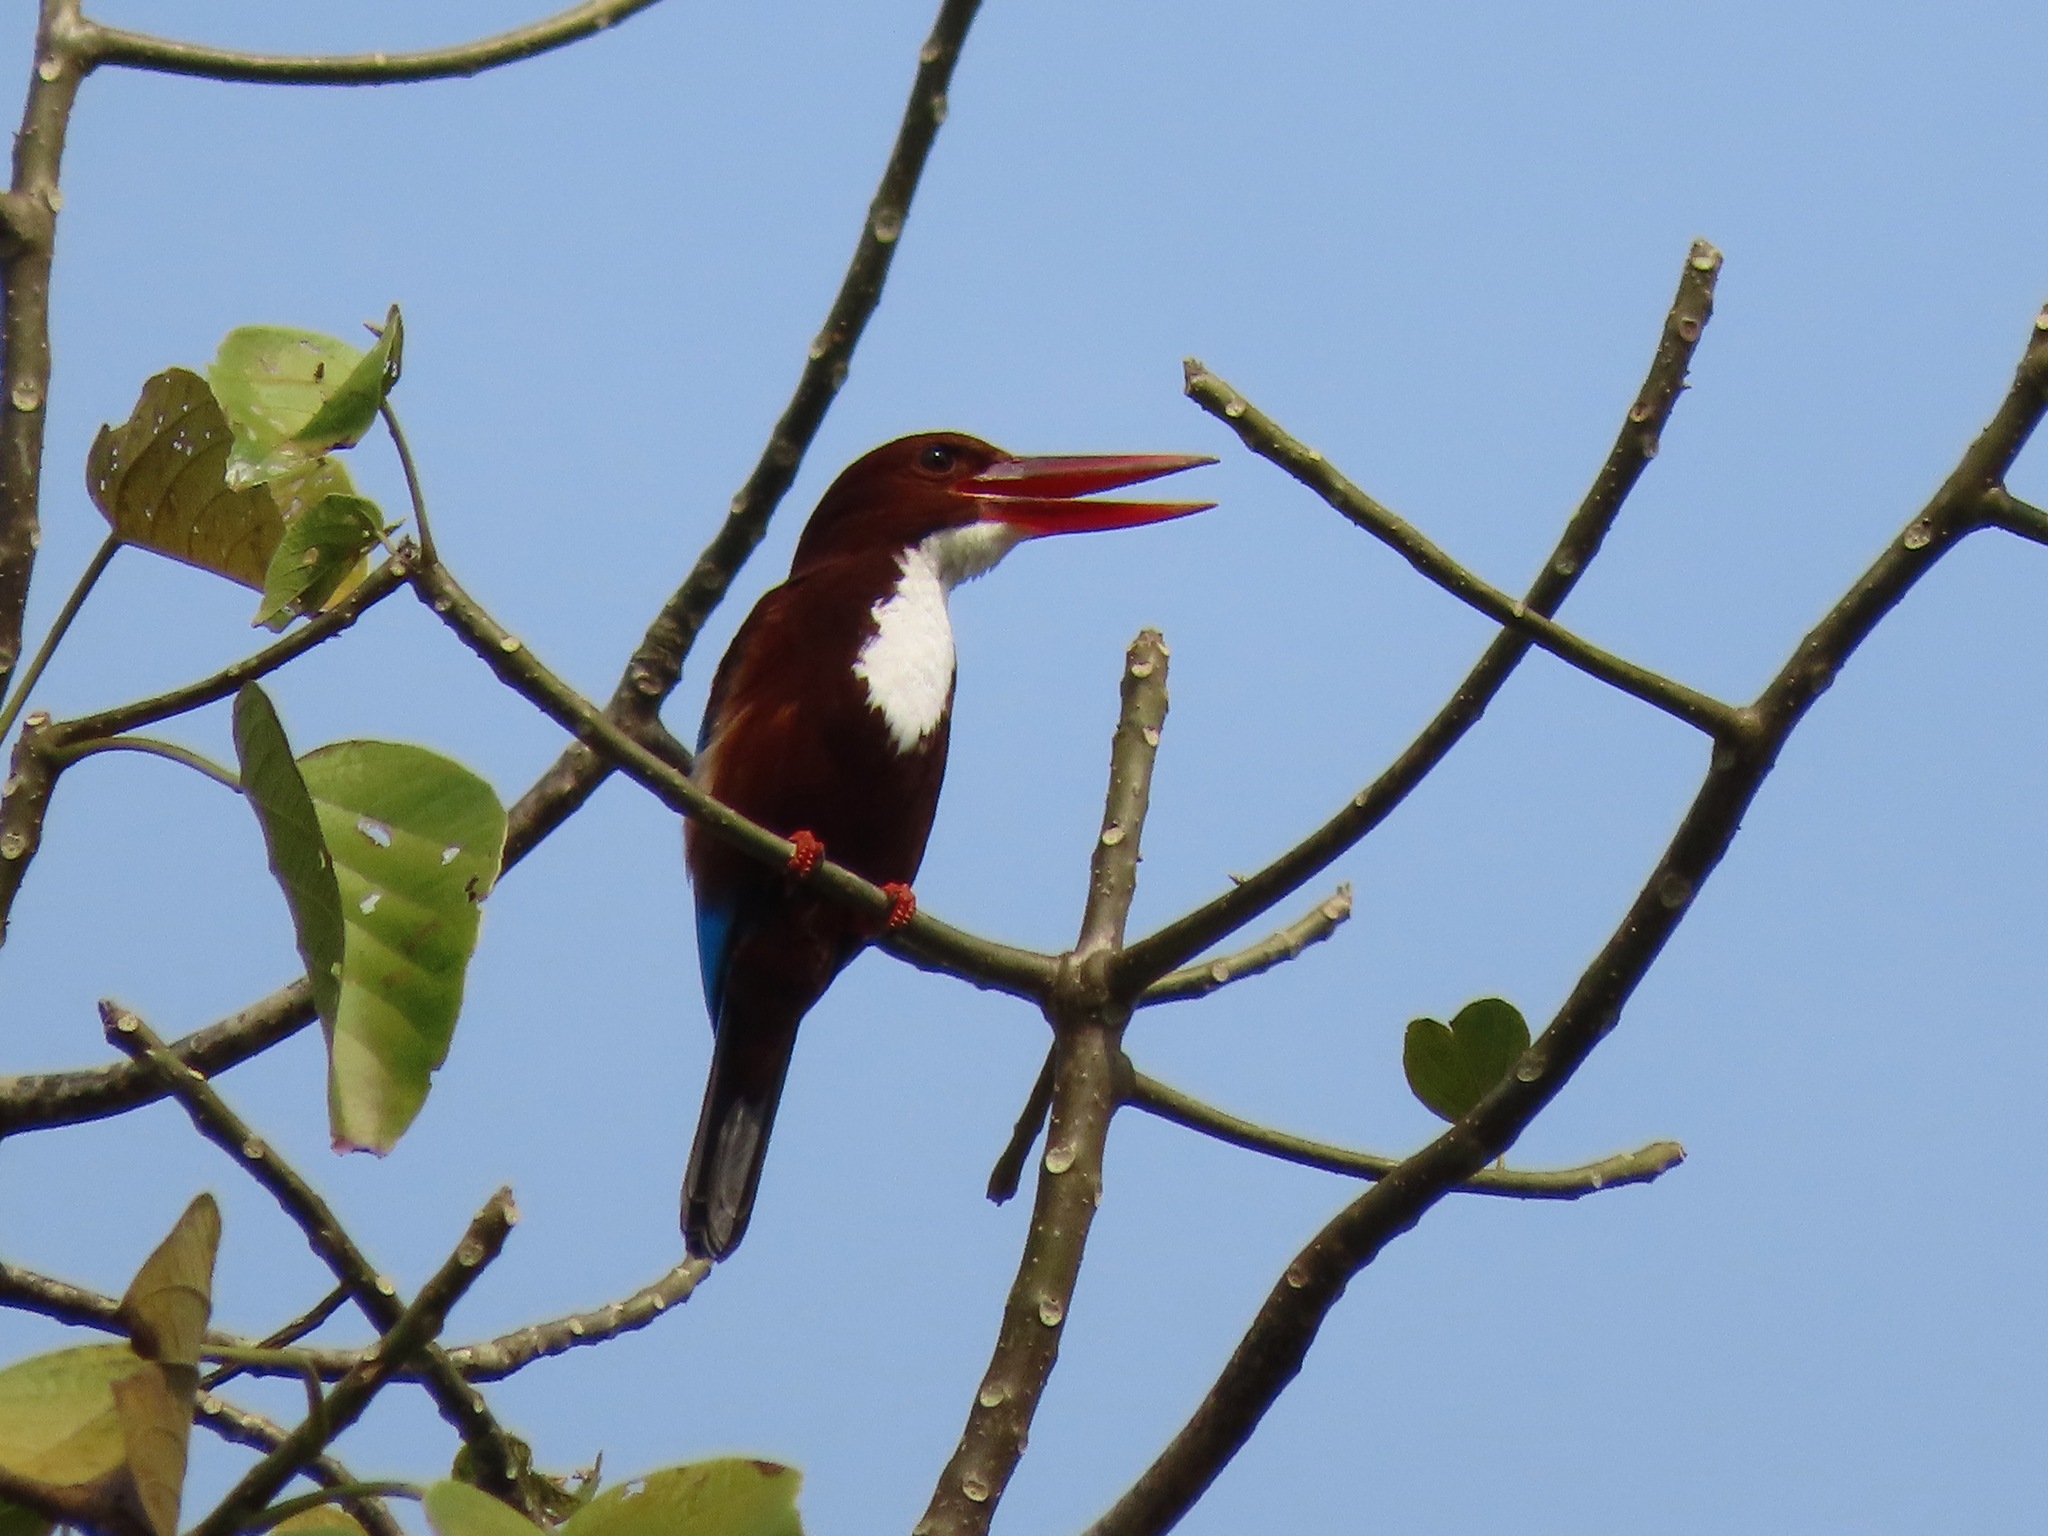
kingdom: Animalia
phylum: Chordata
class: Aves
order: Coraciiformes
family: Alcedinidae
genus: Halcyon
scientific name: Halcyon smyrnensis
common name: White-throated kingfisher
